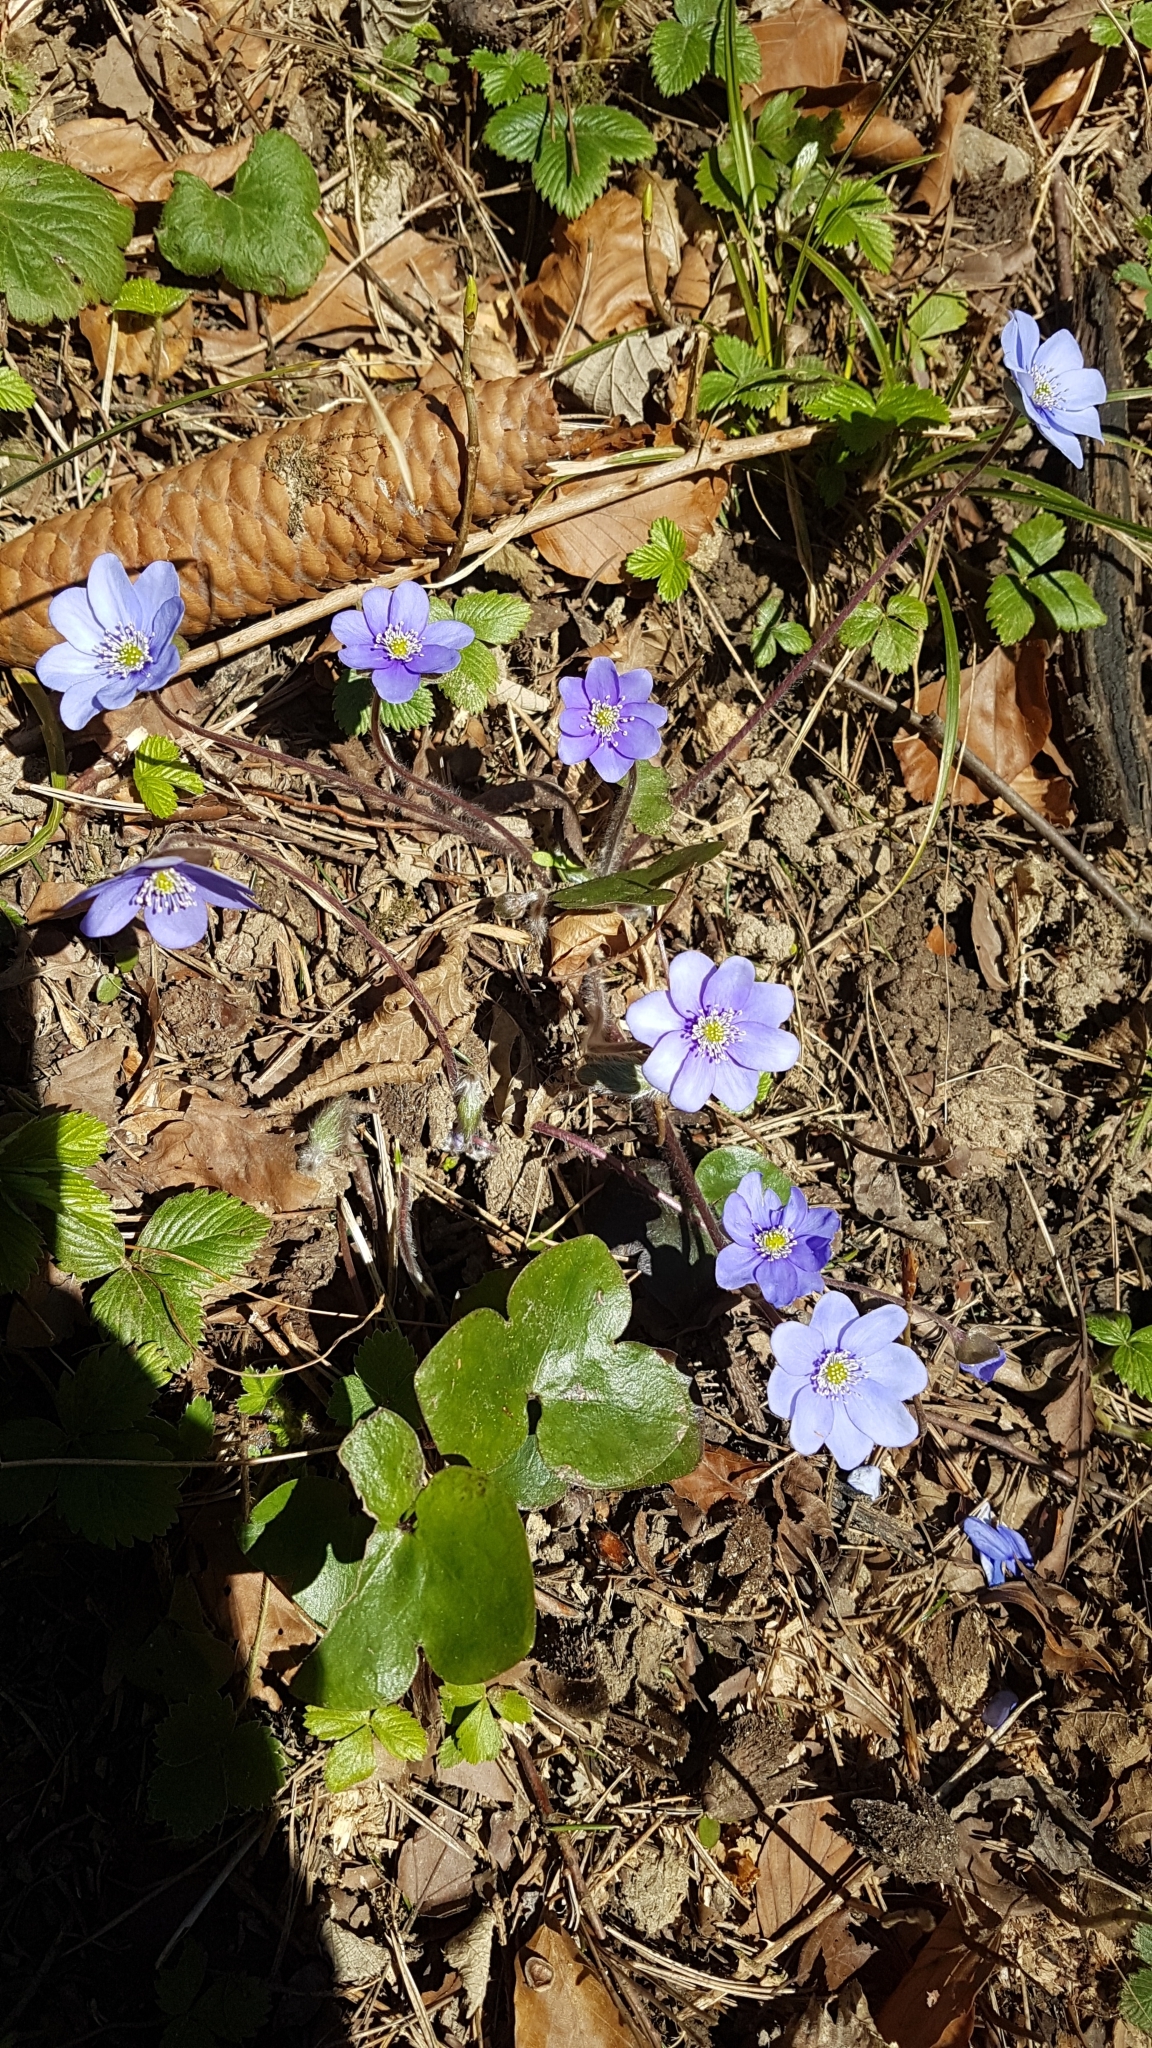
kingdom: Plantae
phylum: Tracheophyta
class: Magnoliopsida
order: Ranunculales
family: Ranunculaceae
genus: Hepatica
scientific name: Hepatica nobilis
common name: Liverleaf
